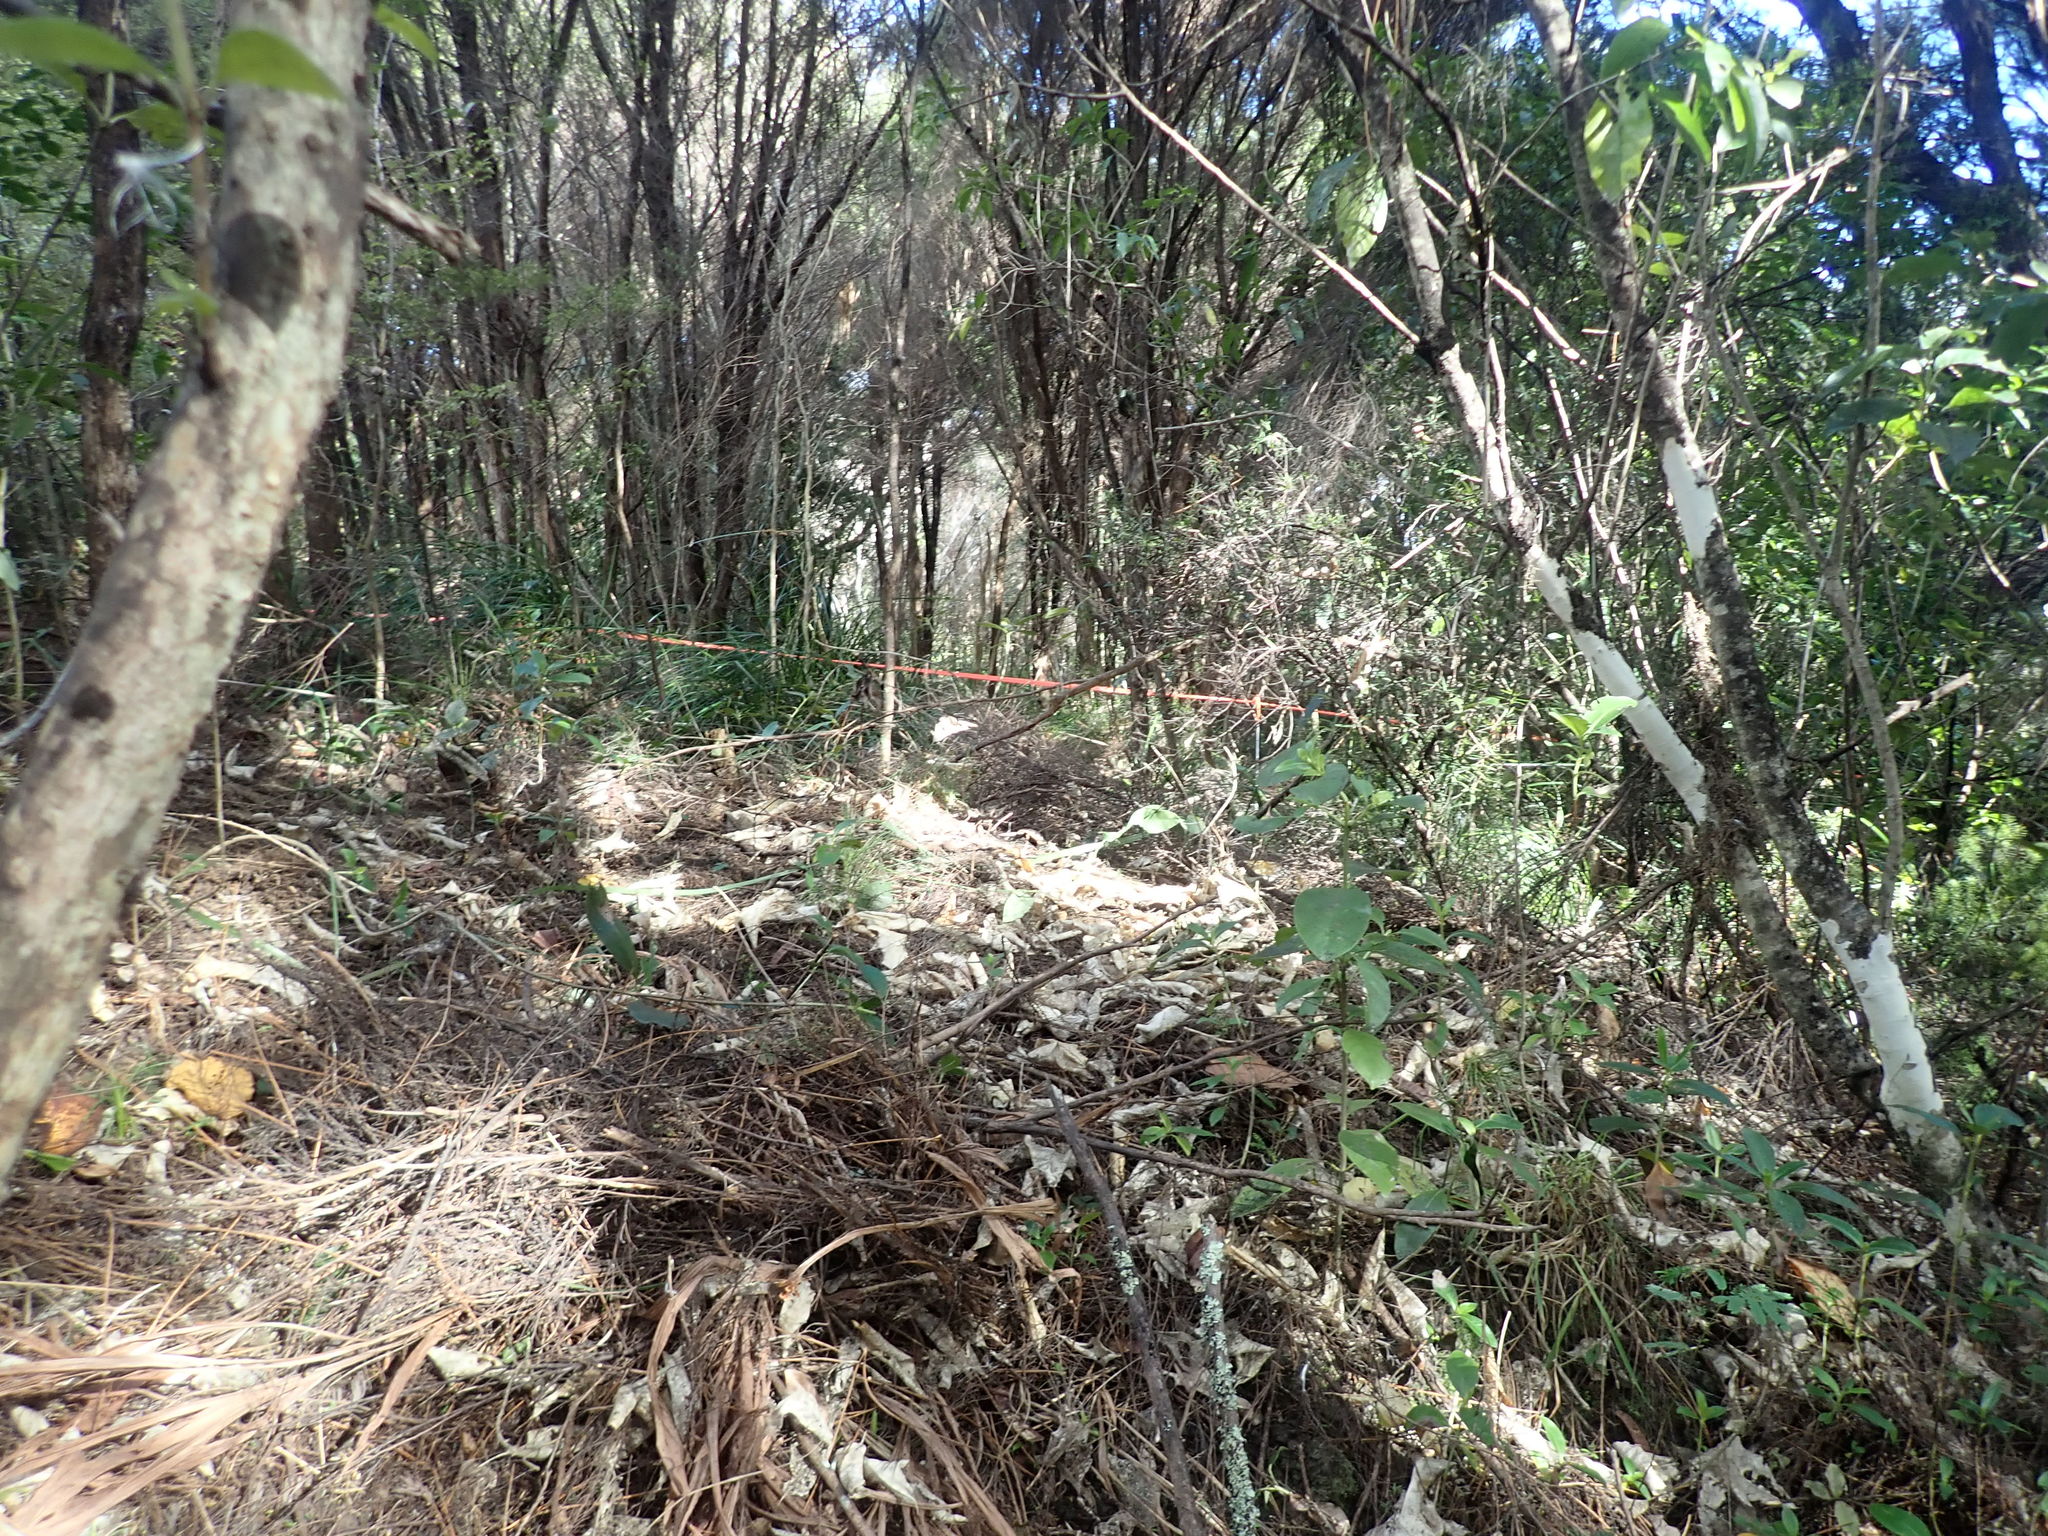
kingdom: Plantae
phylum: Tracheophyta
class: Magnoliopsida
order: Malpighiales
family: Violaceae
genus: Melicytus
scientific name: Melicytus ramiflorus
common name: Mahoe
